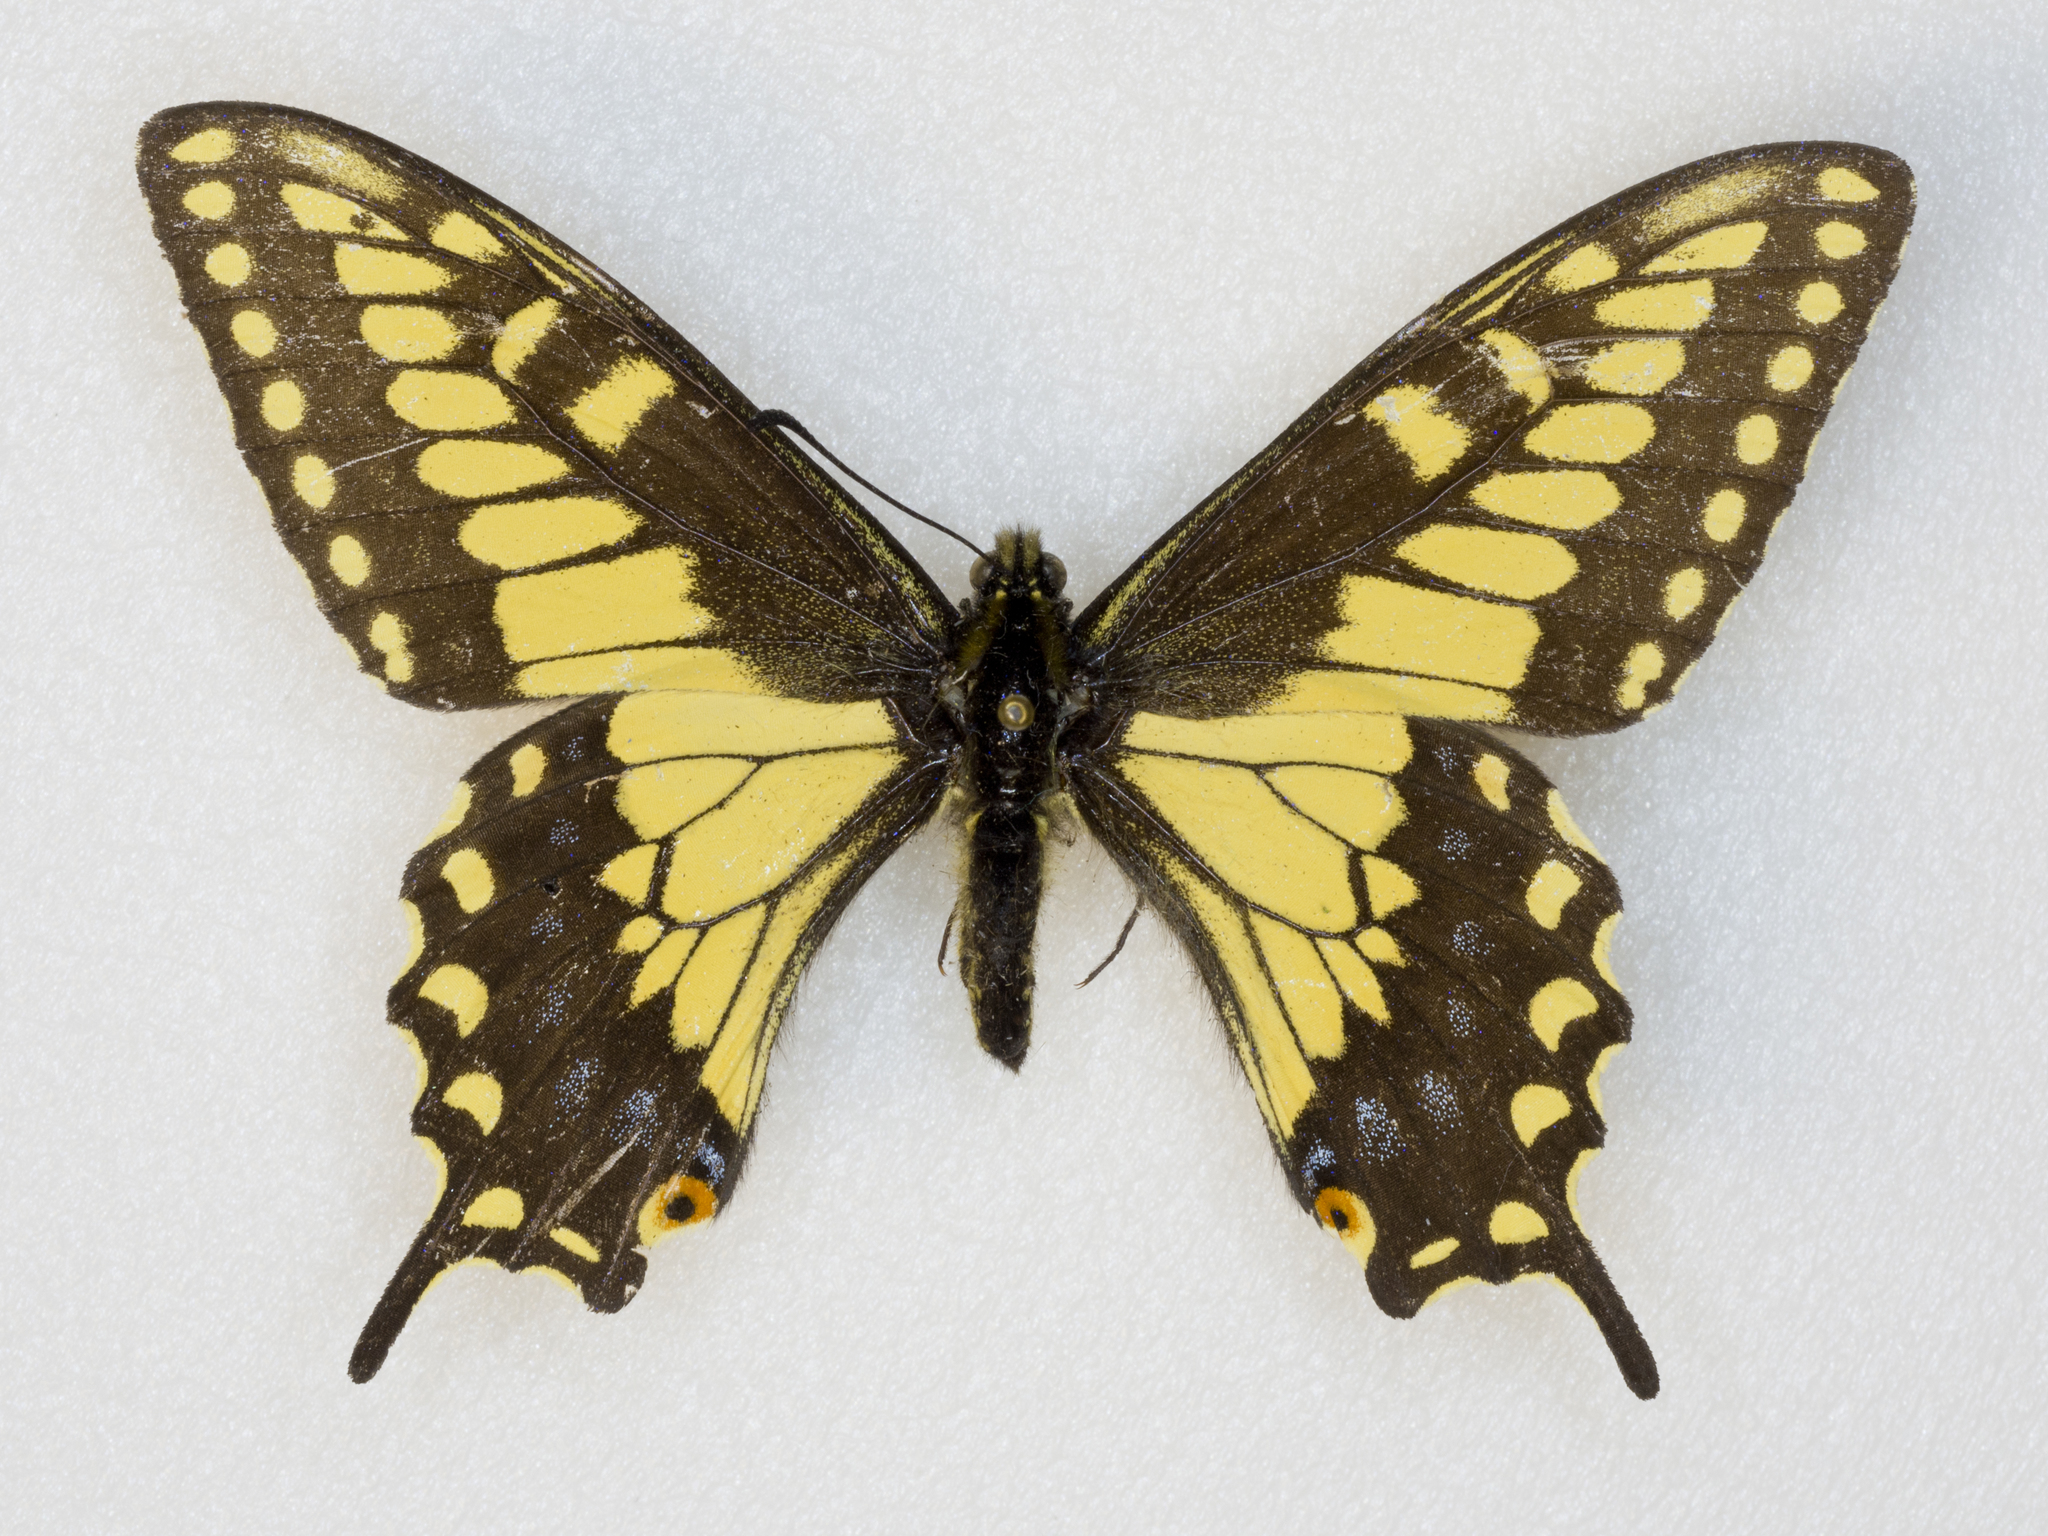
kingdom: Animalia
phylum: Arthropoda
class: Insecta
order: Lepidoptera
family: Papilionidae
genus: Papilio
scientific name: Papilio polyxenes
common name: Black swallowtail
